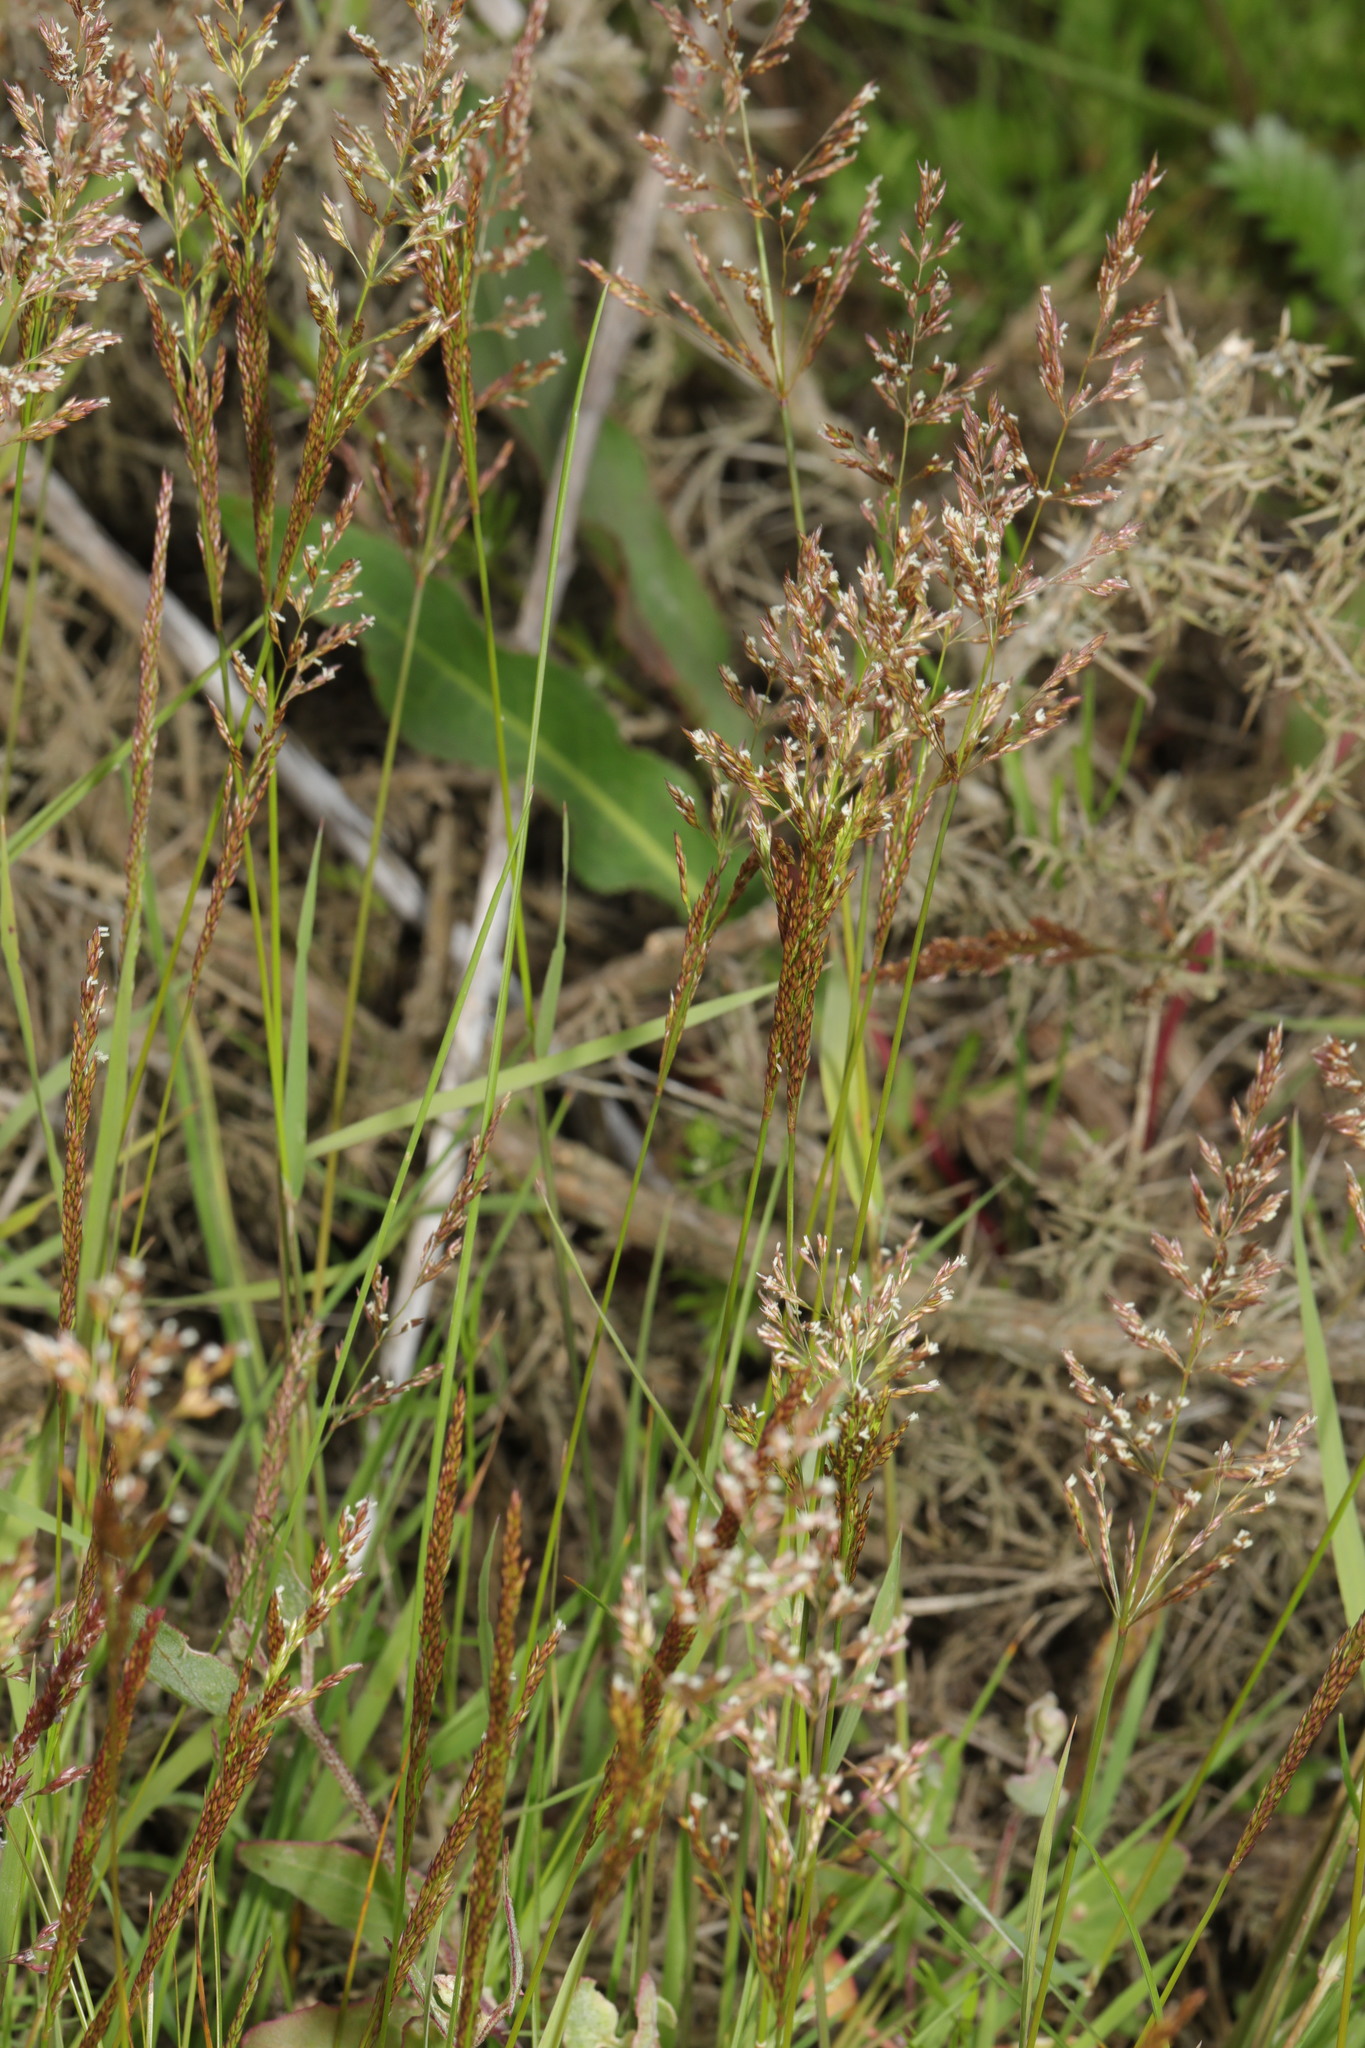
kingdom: Plantae
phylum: Tracheophyta
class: Liliopsida
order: Poales
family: Poaceae
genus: Agrostis
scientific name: Agrostis stolonifera
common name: Creeping bentgrass
